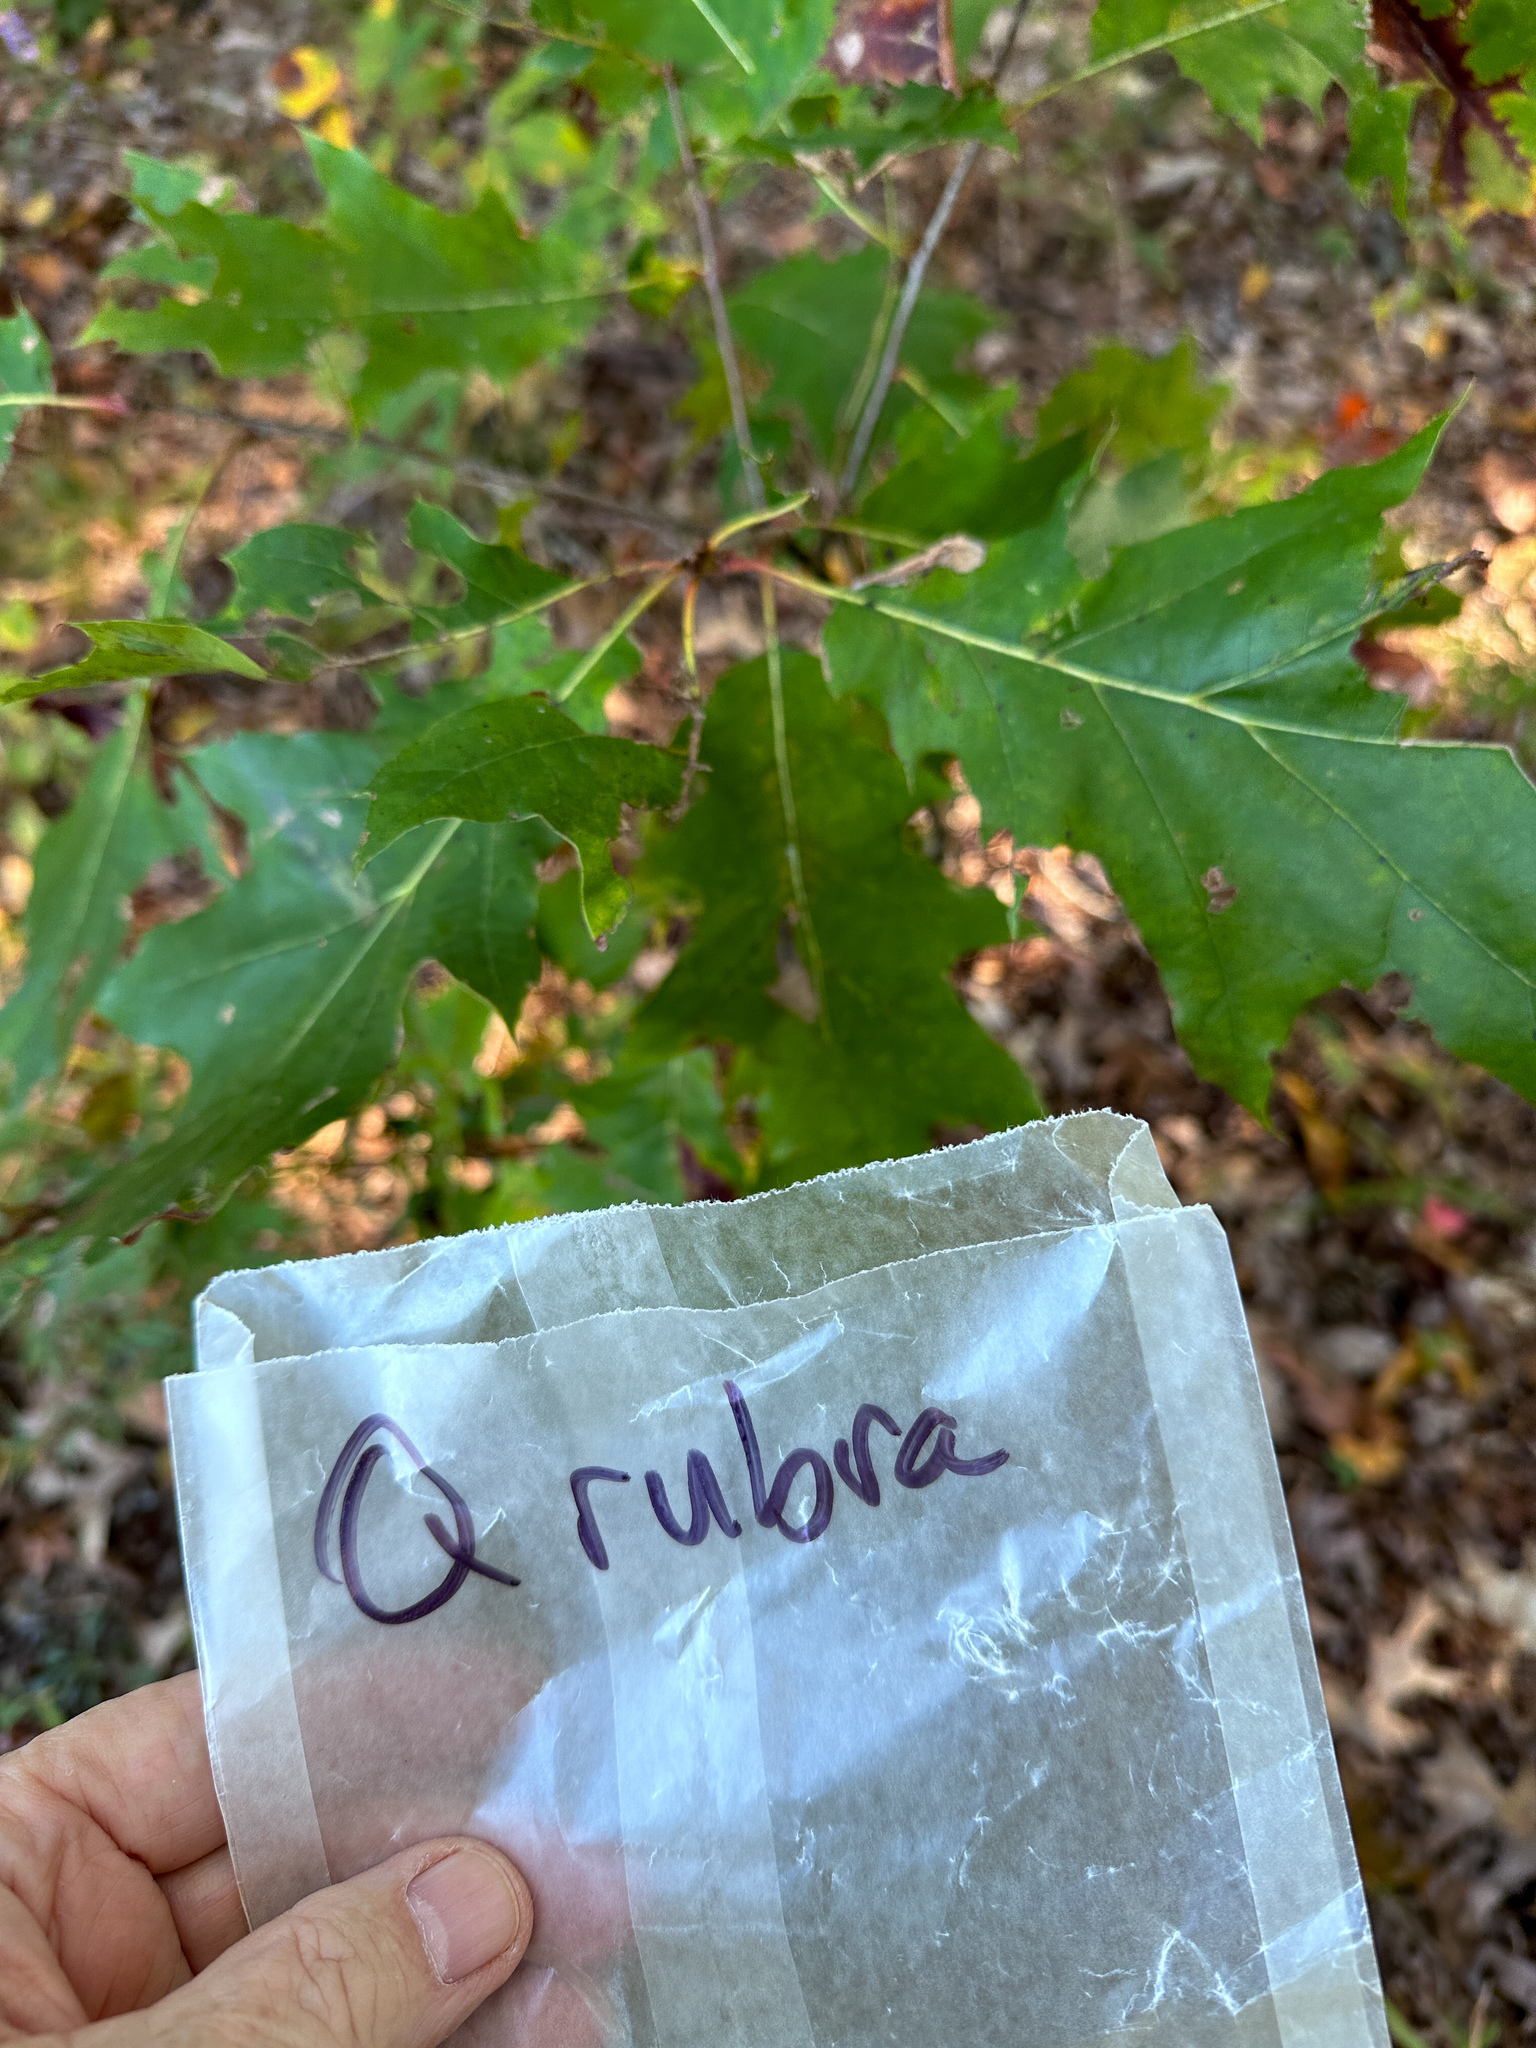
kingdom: Animalia
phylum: Arthropoda
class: Insecta
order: Hymenoptera
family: Cynipidae
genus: Kokkocynips
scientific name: Kokkocynips rileyi
